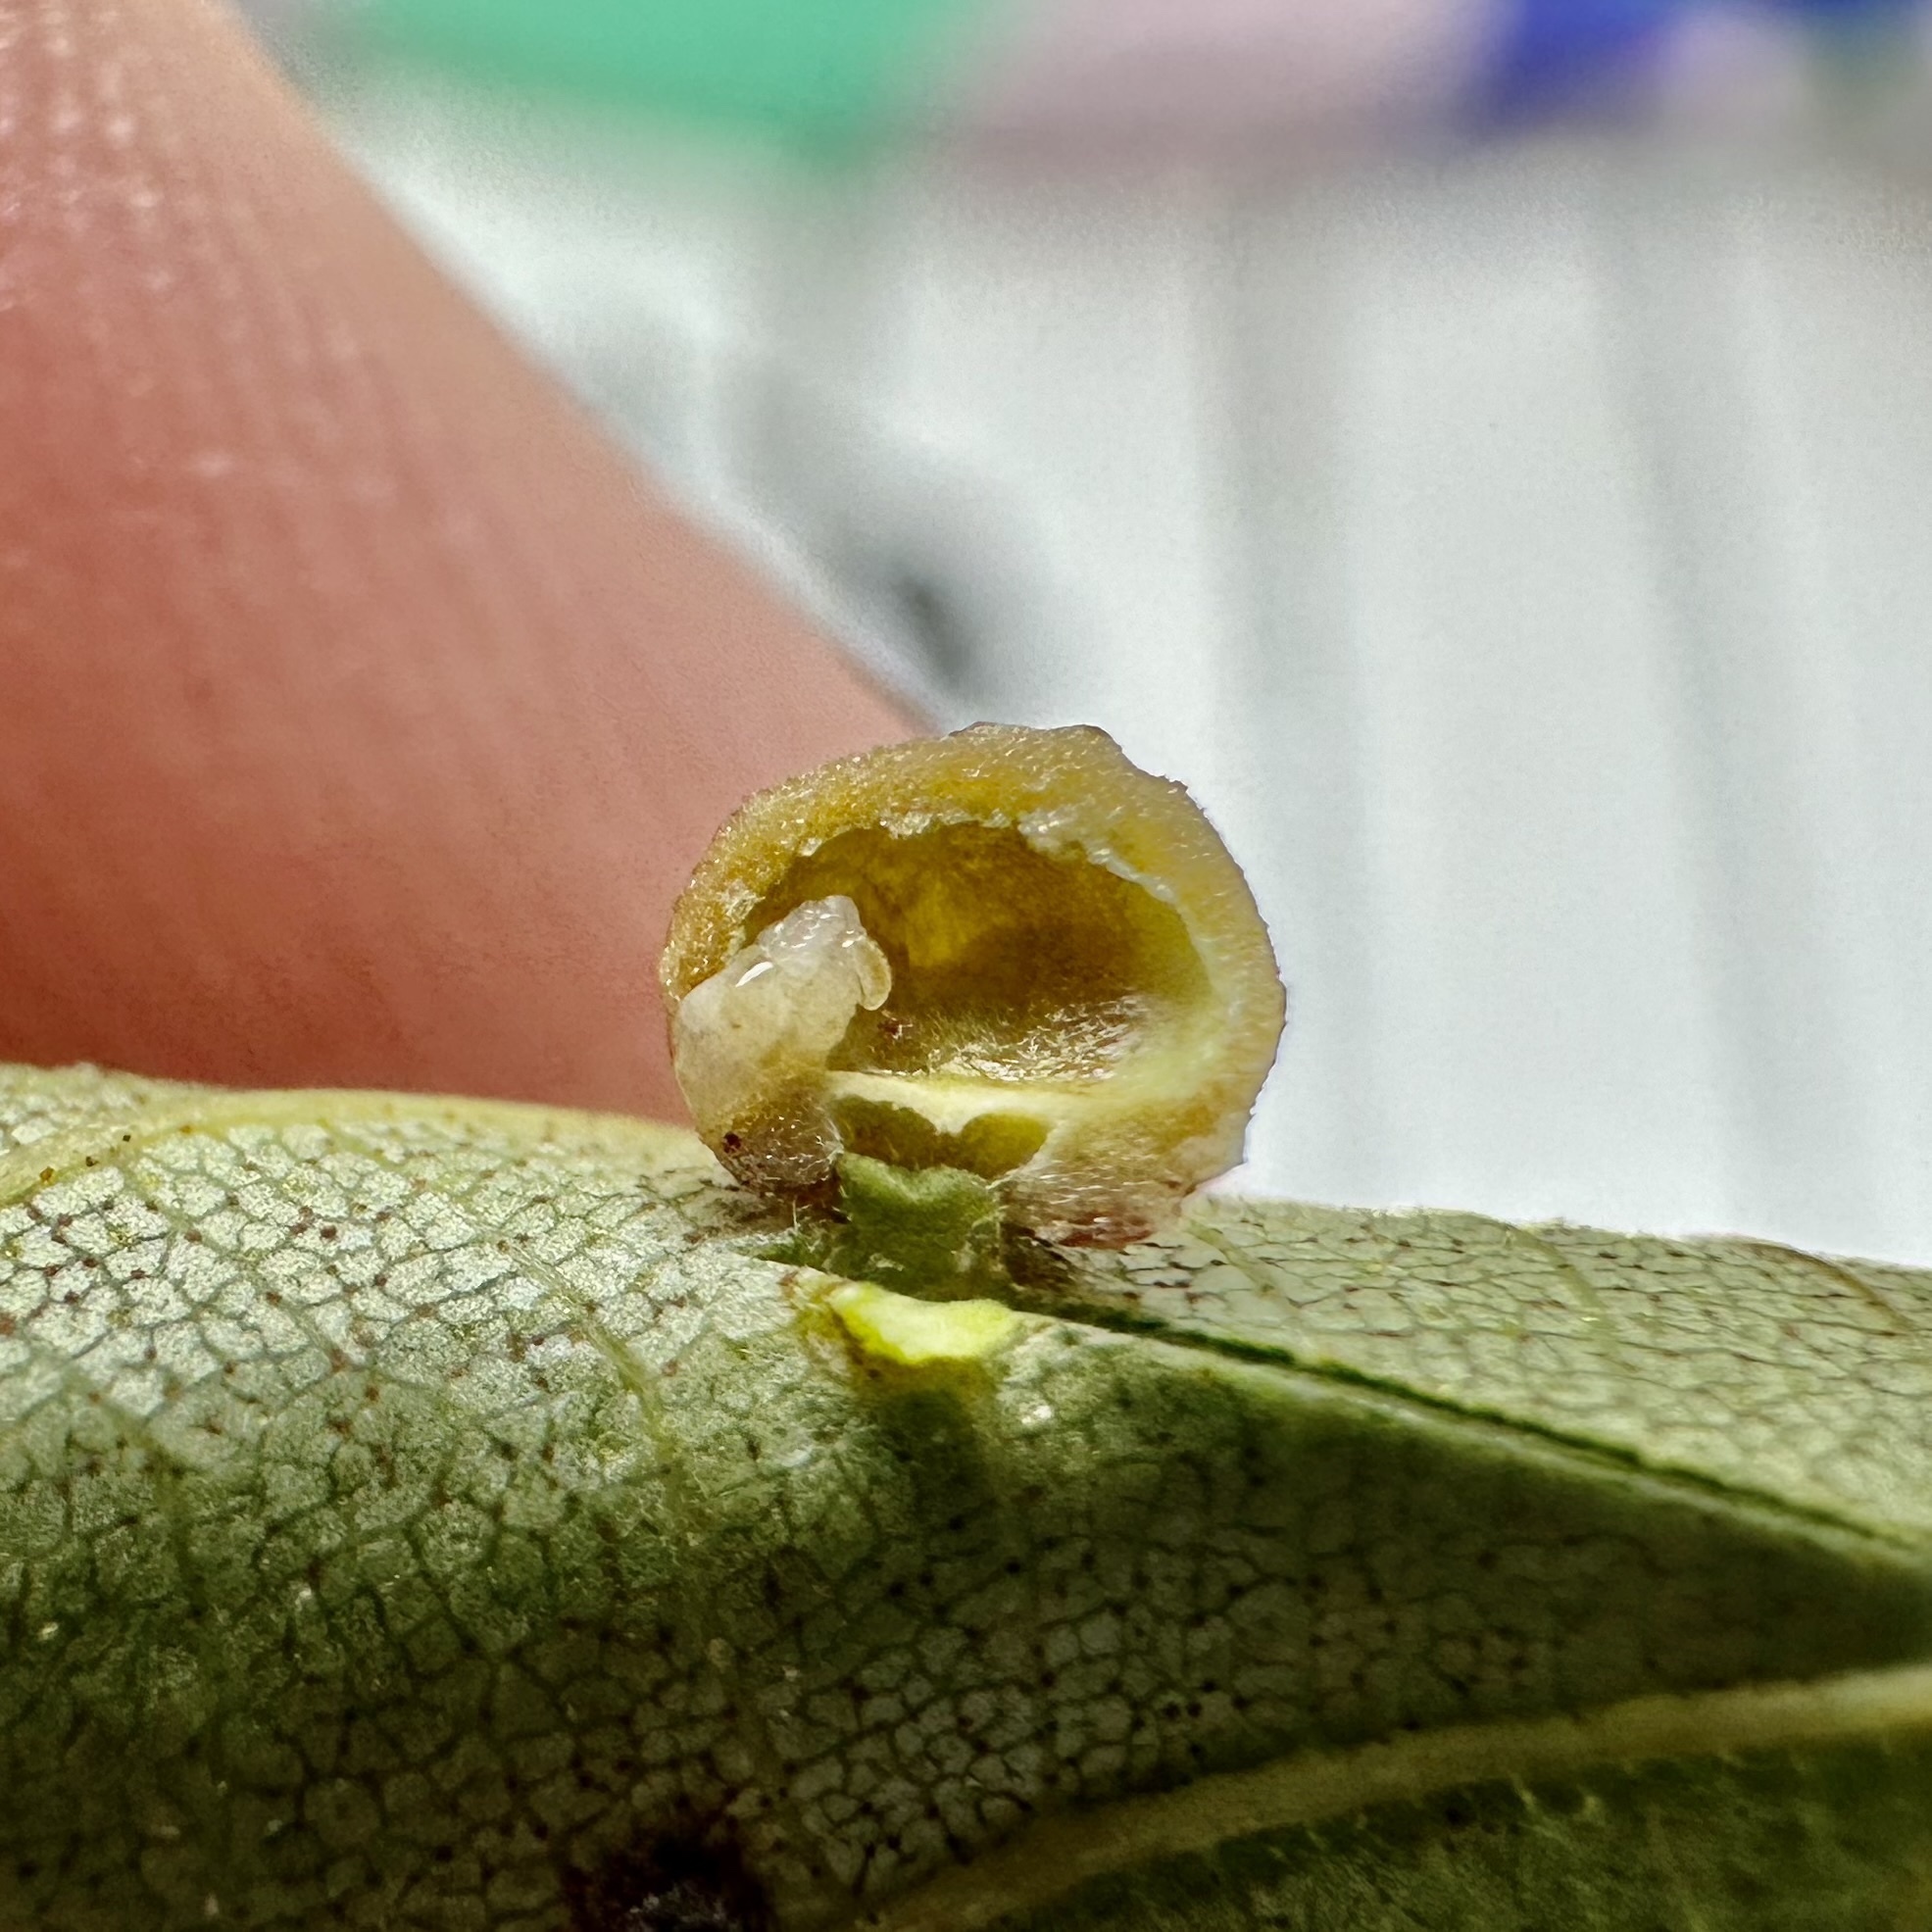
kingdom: Animalia
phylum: Arthropoda
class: Insecta
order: Diptera
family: Cecidomyiidae
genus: Caryomyia
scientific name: Caryomyia tuberculata
